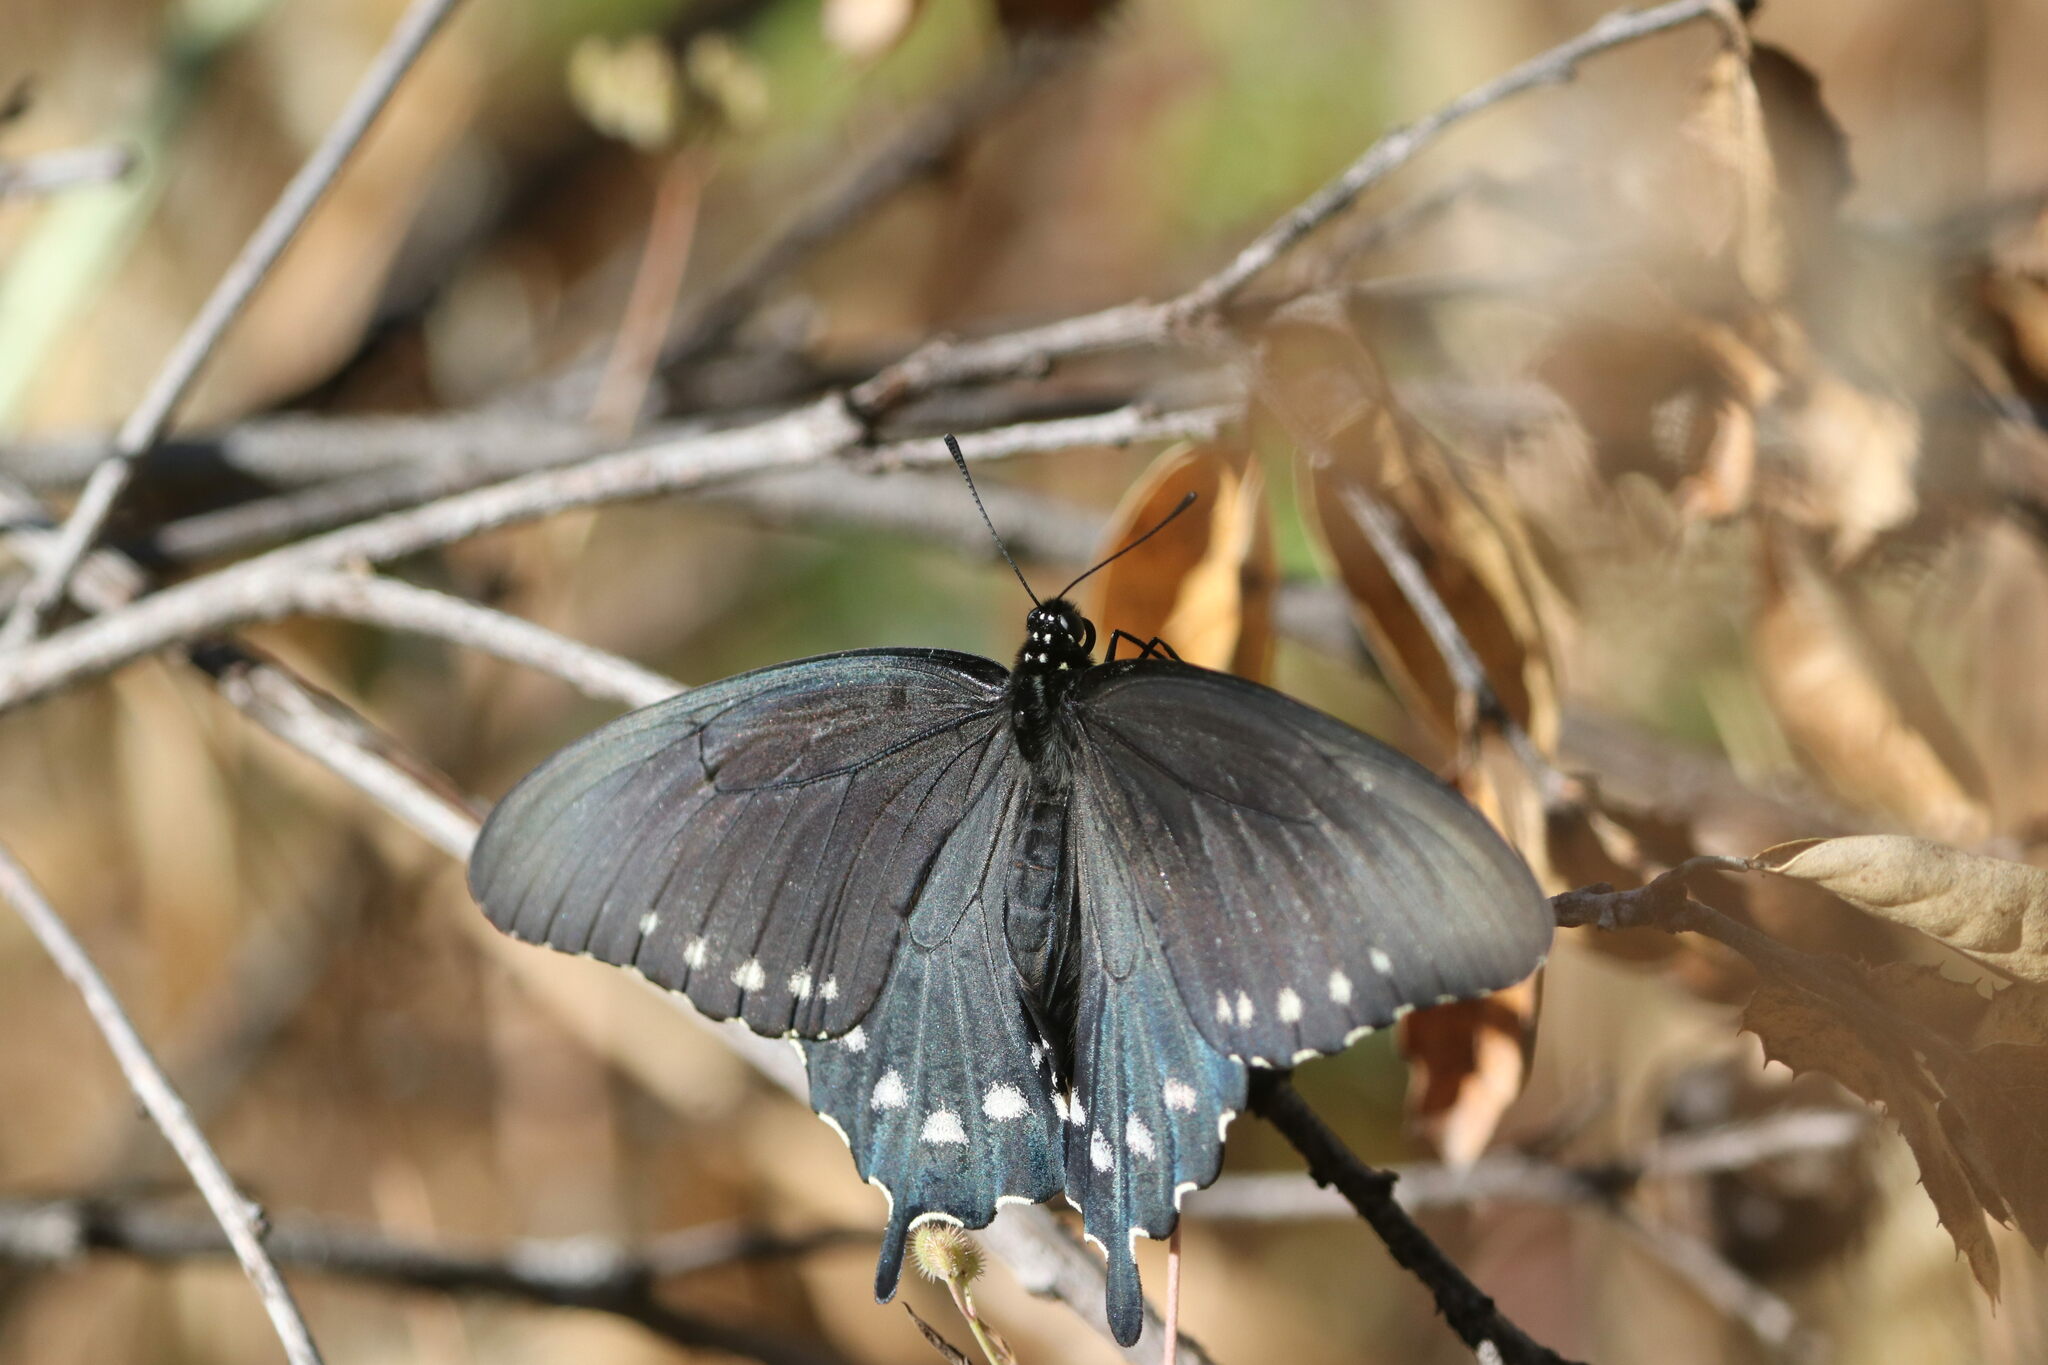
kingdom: Animalia
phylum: Arthropoda
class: Insecta
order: Lepidoptera
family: Papilionidae
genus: Battus
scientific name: Battus philenor
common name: Pipevine swallowtail
